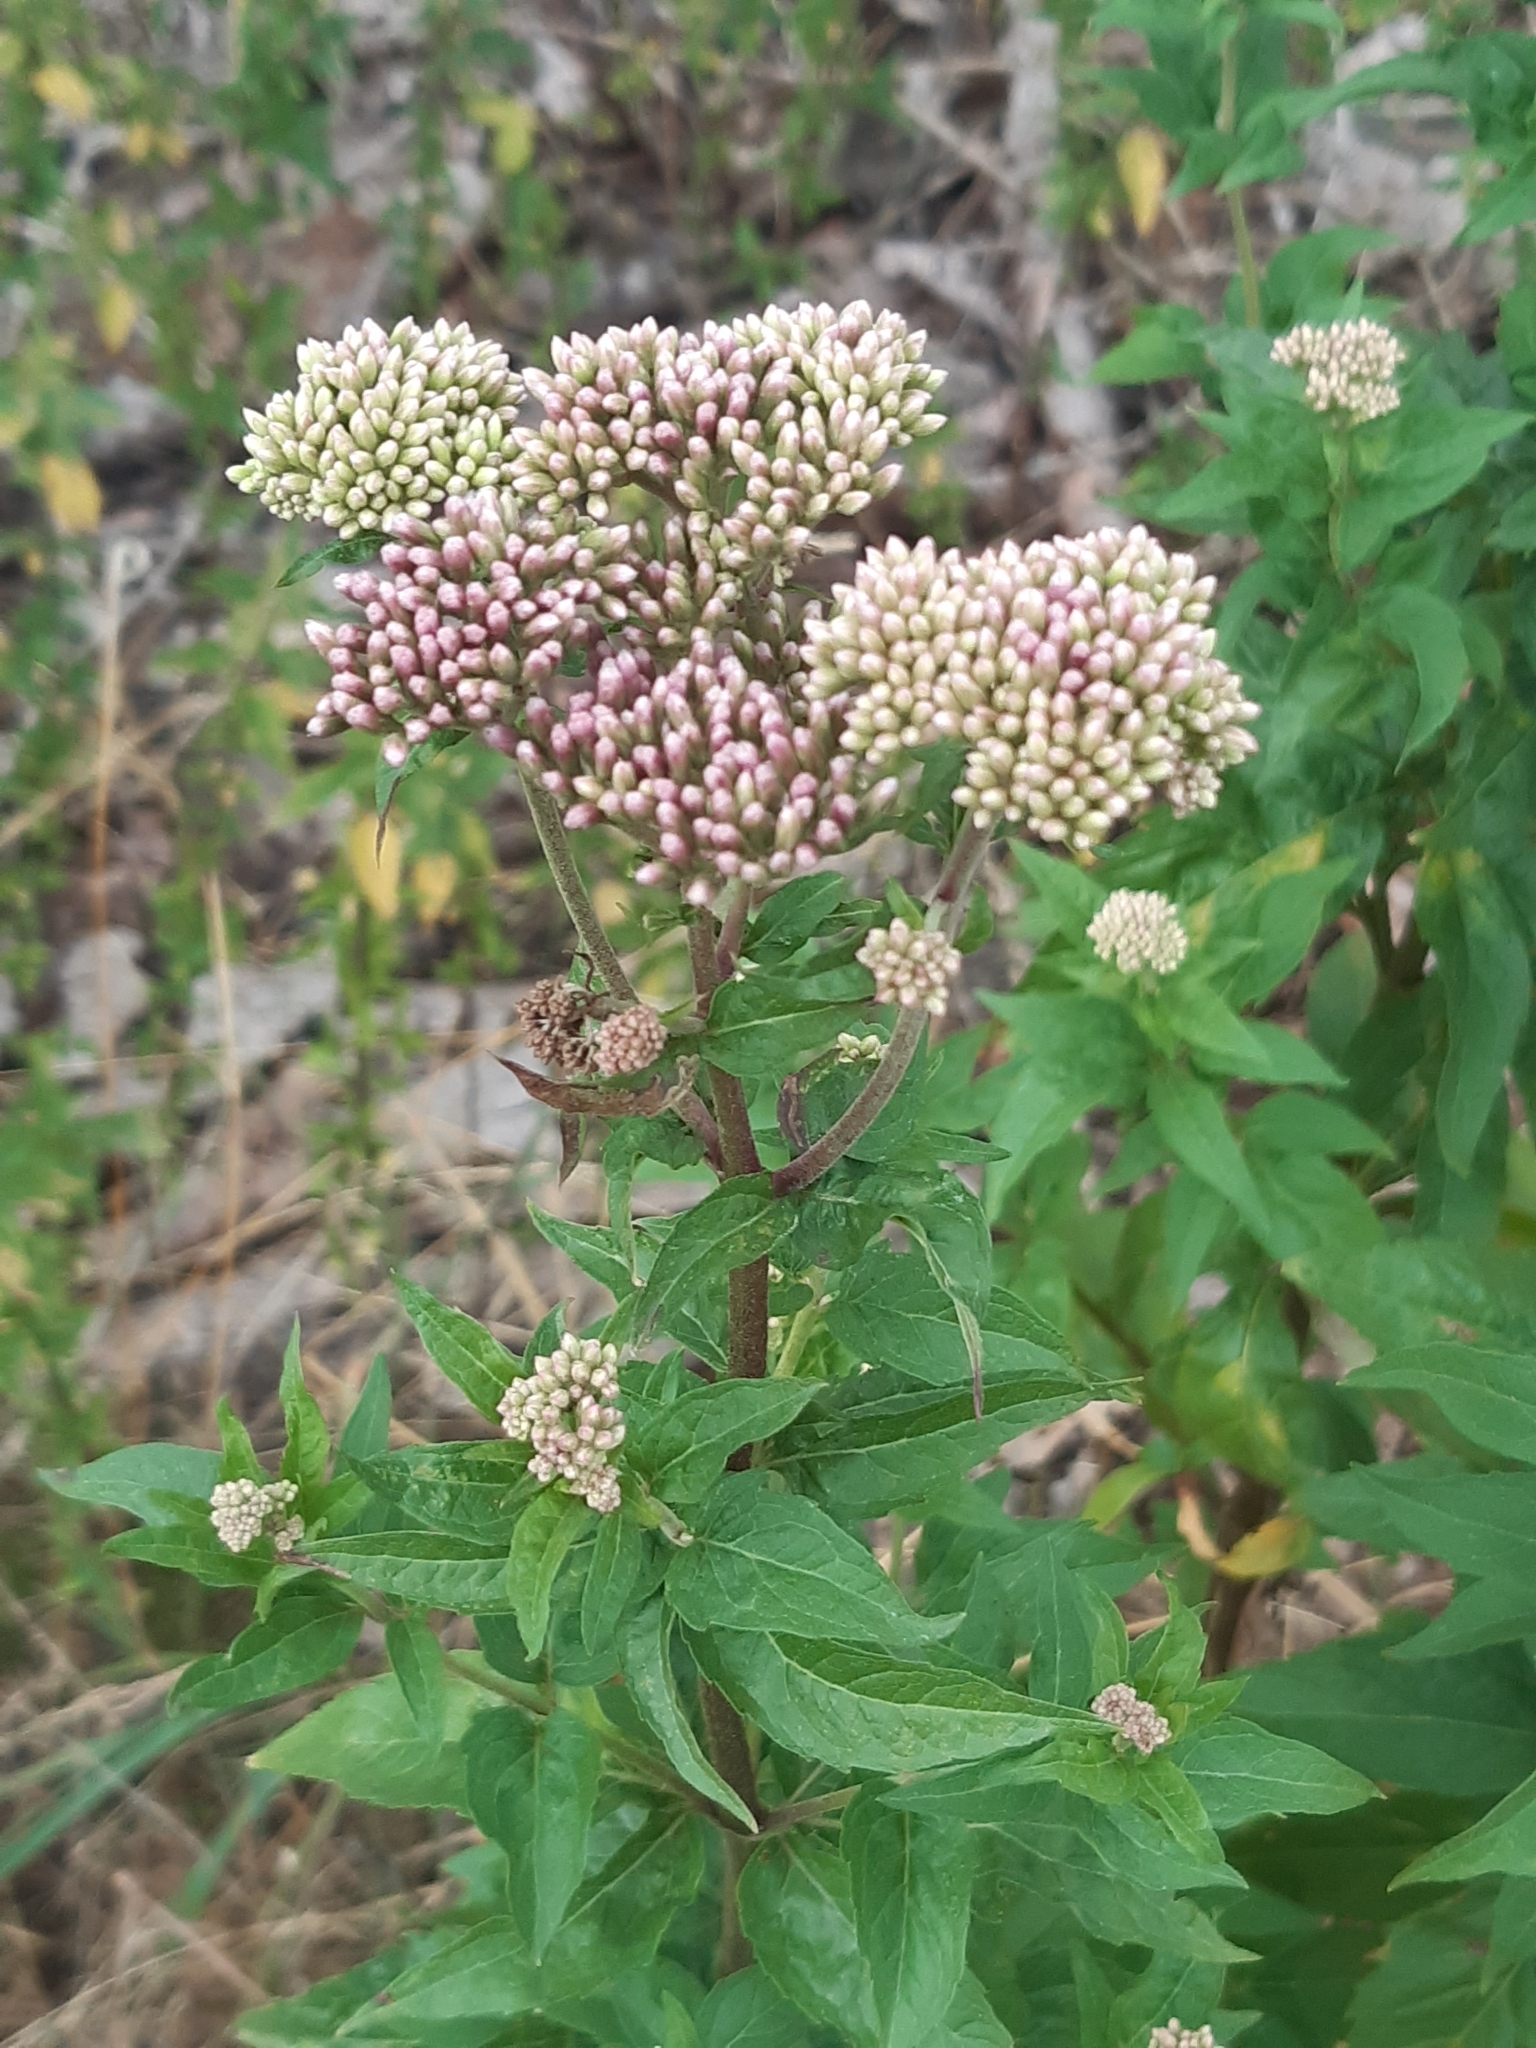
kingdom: Plantae
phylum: Tracheophyta
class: Magnoliopsida
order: Asterales
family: Asteraceae
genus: Eupatorium
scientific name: Eupatorium cannabinum
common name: Hemp-agrimony
